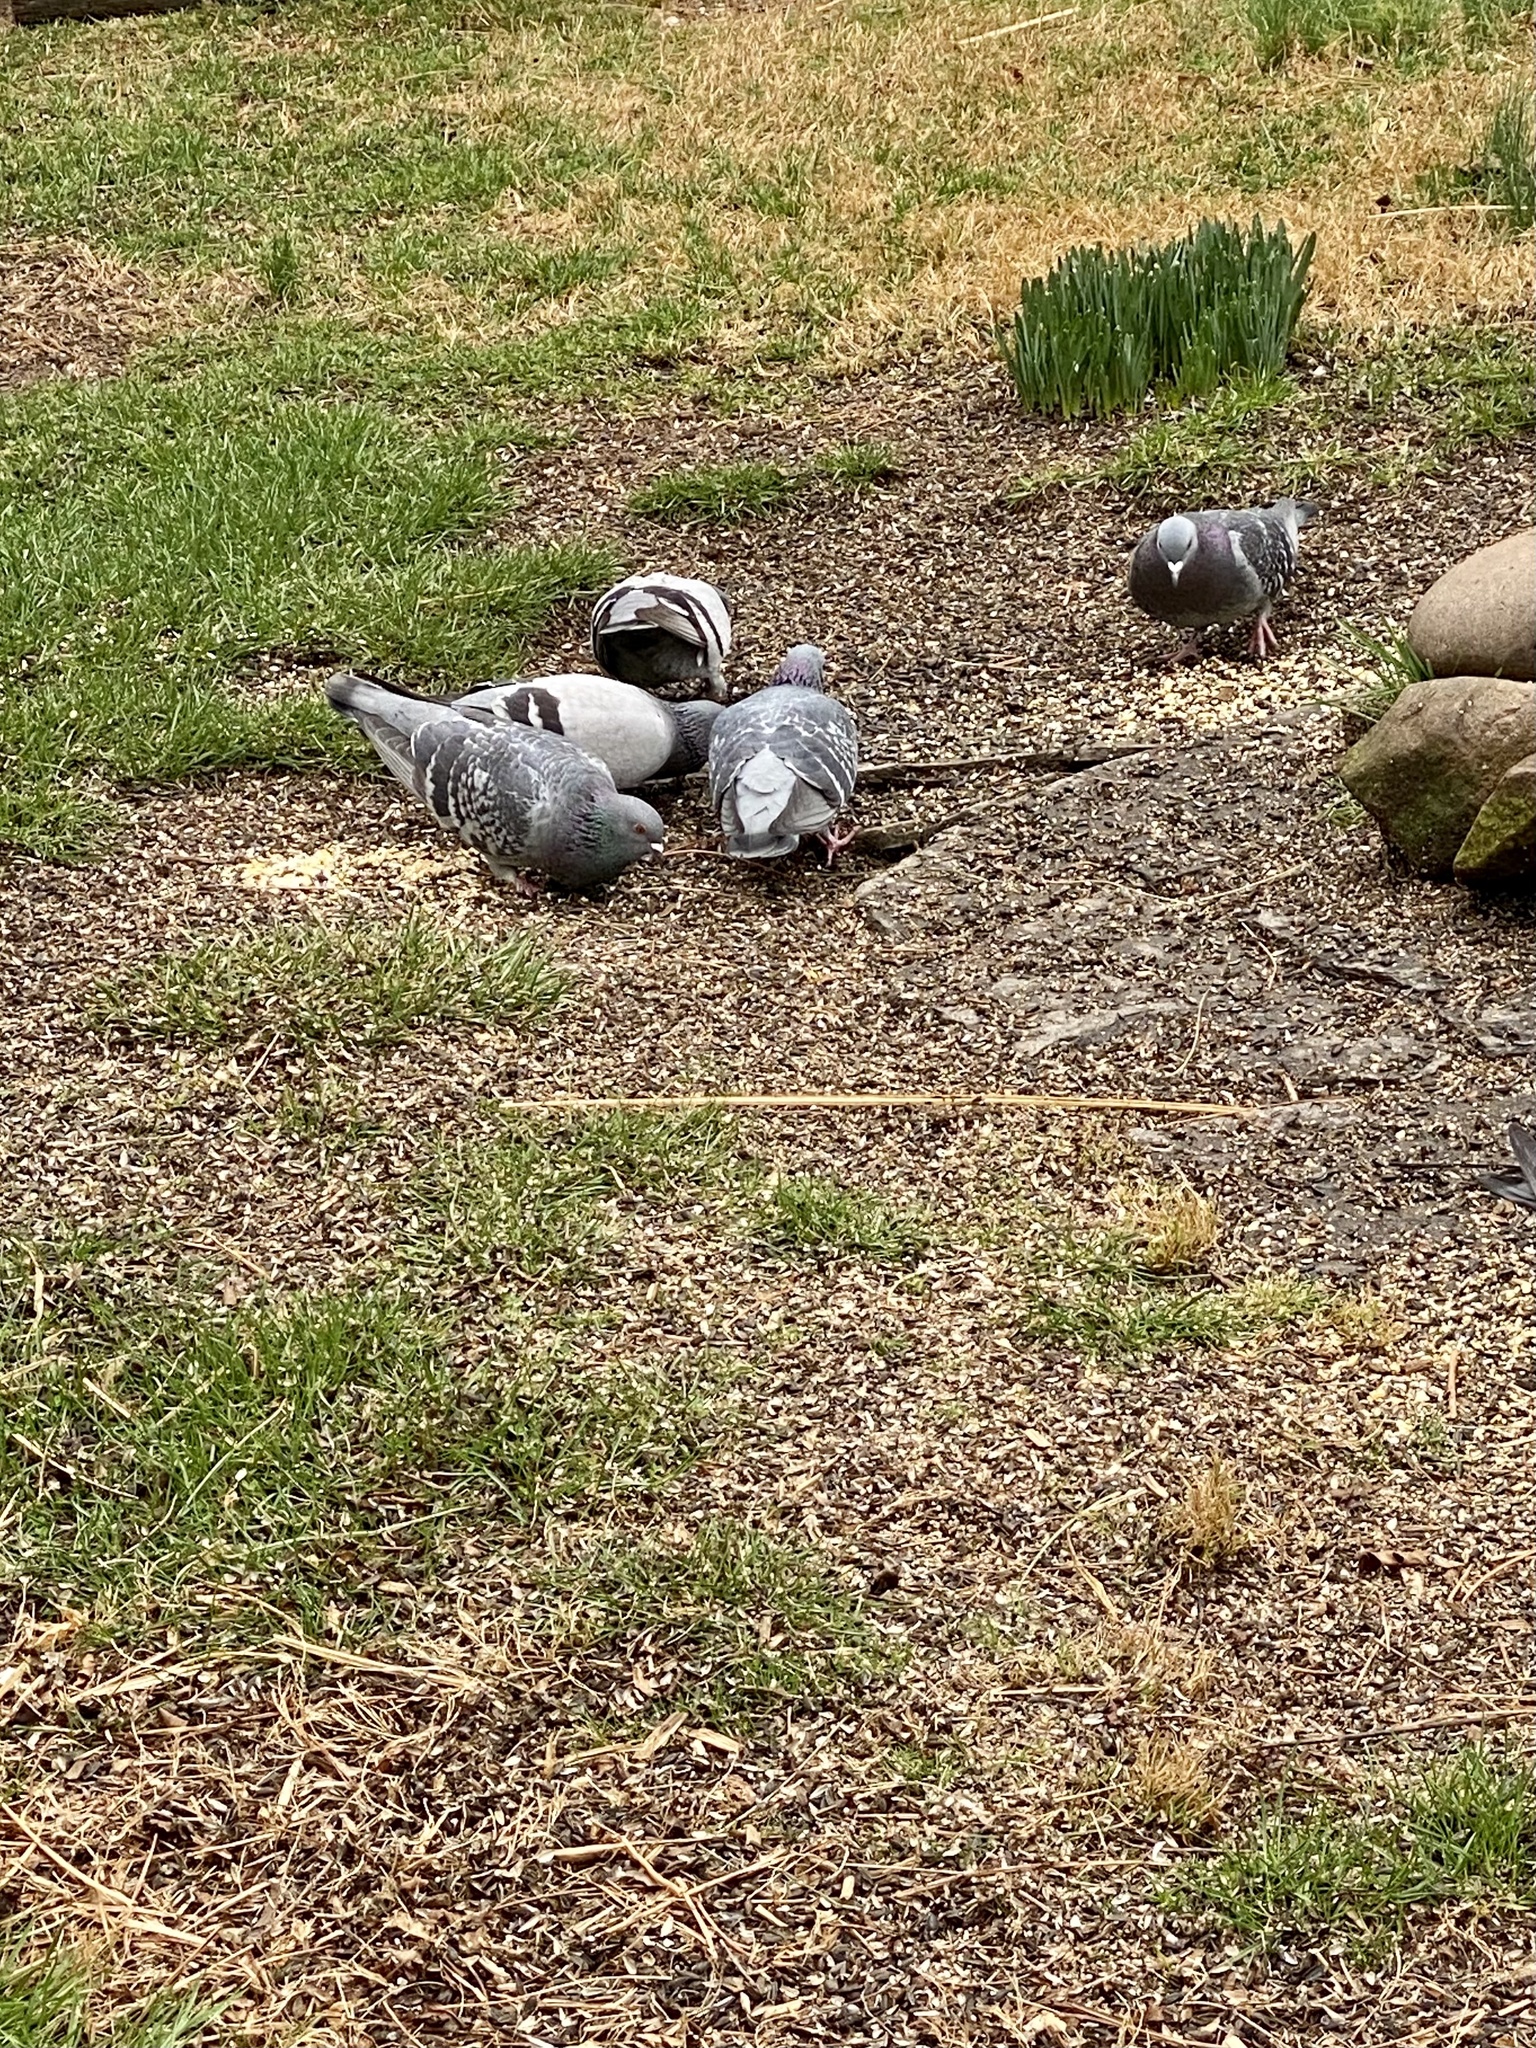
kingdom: Animalia
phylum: Chordata
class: Aves
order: Columbiformes
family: Columbidae
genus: Columba
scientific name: Columba livia
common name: Rock pigeon
